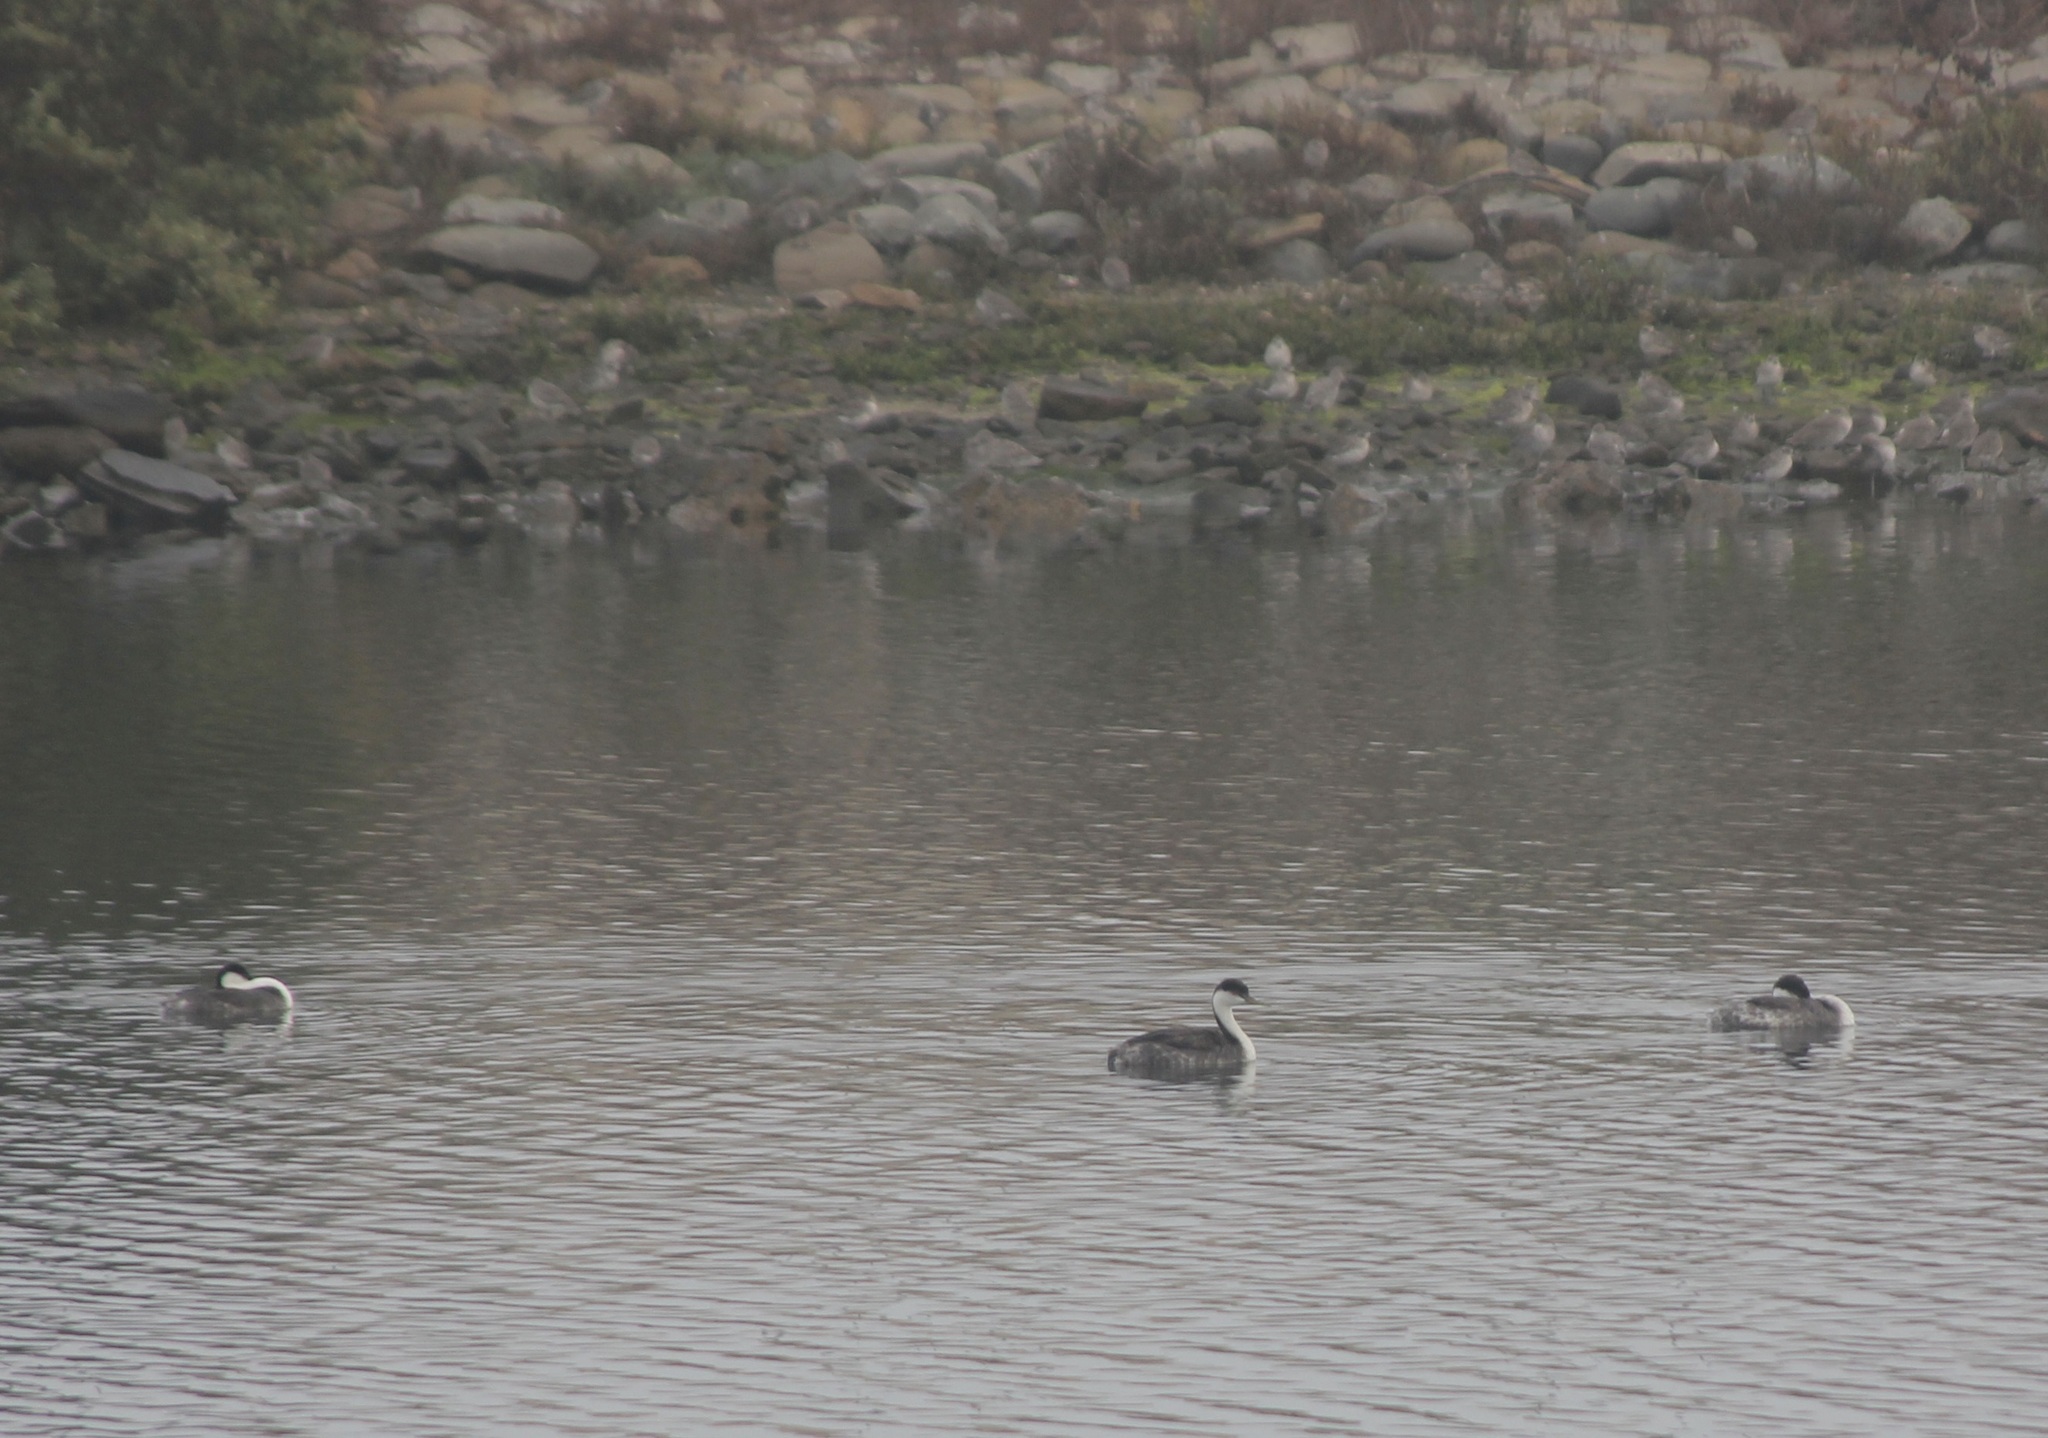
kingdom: Animalia
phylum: Chordata
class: Aves
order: Podicipediformes
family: Podicipedidae
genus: Aechmophorus
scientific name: Aechmophorus occidentalis
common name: Western grebe
